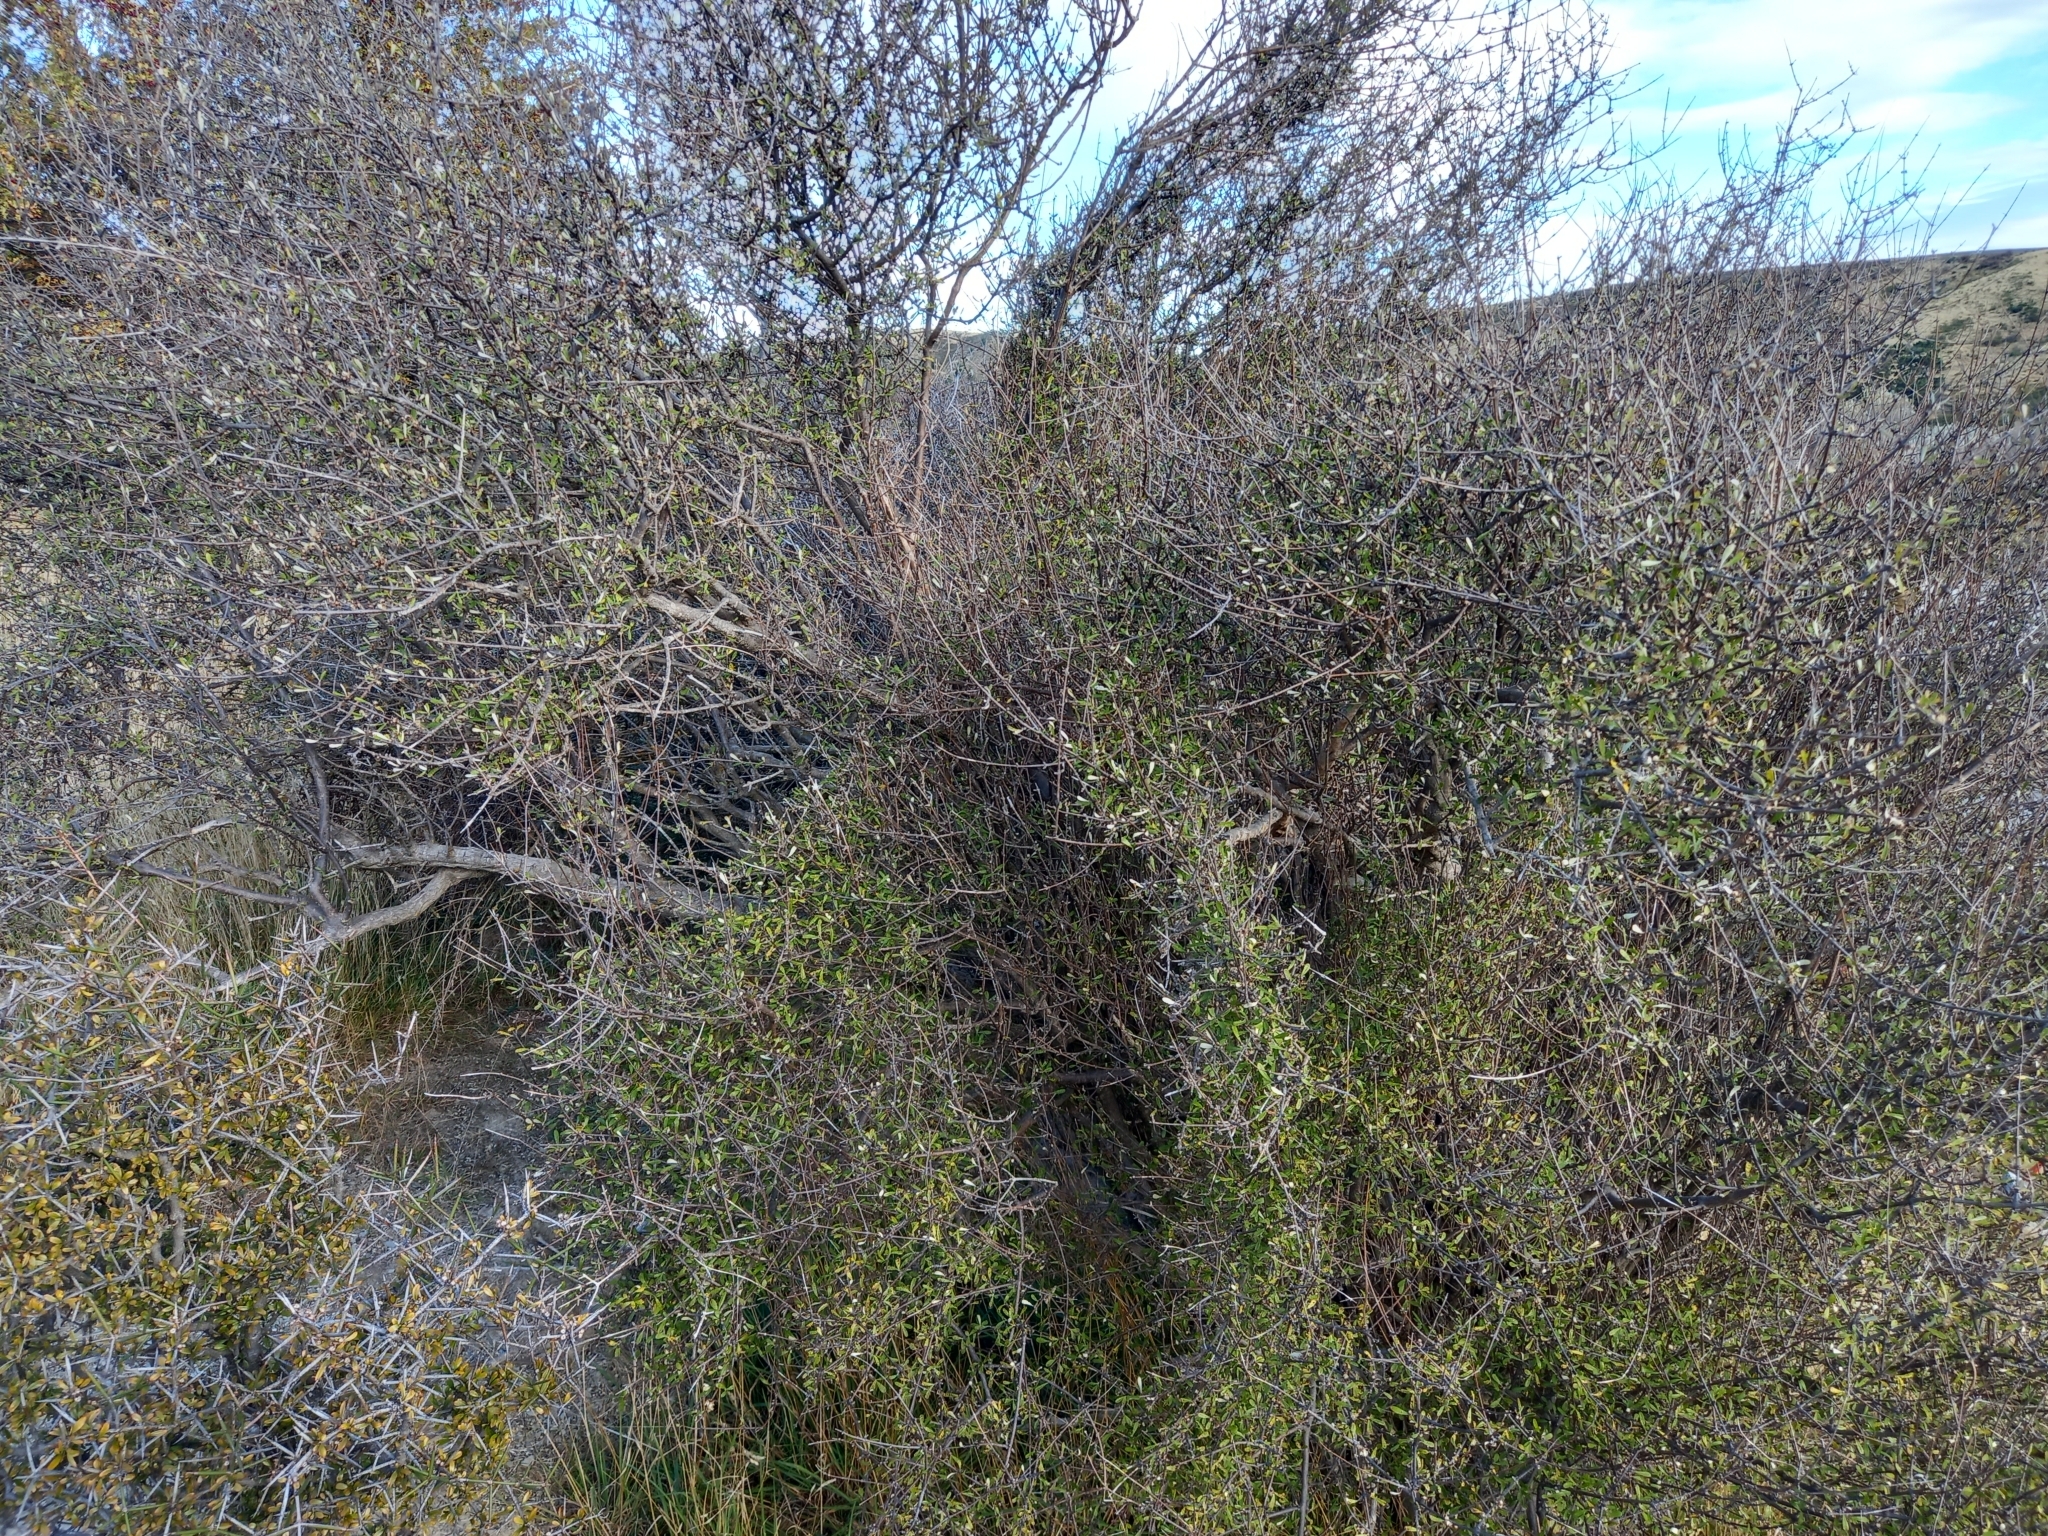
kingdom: Plantae
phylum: Tracheophyta
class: Magnoliopsida
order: Asterales
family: Asteraceae
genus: Olearia
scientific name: Olearia odorata
